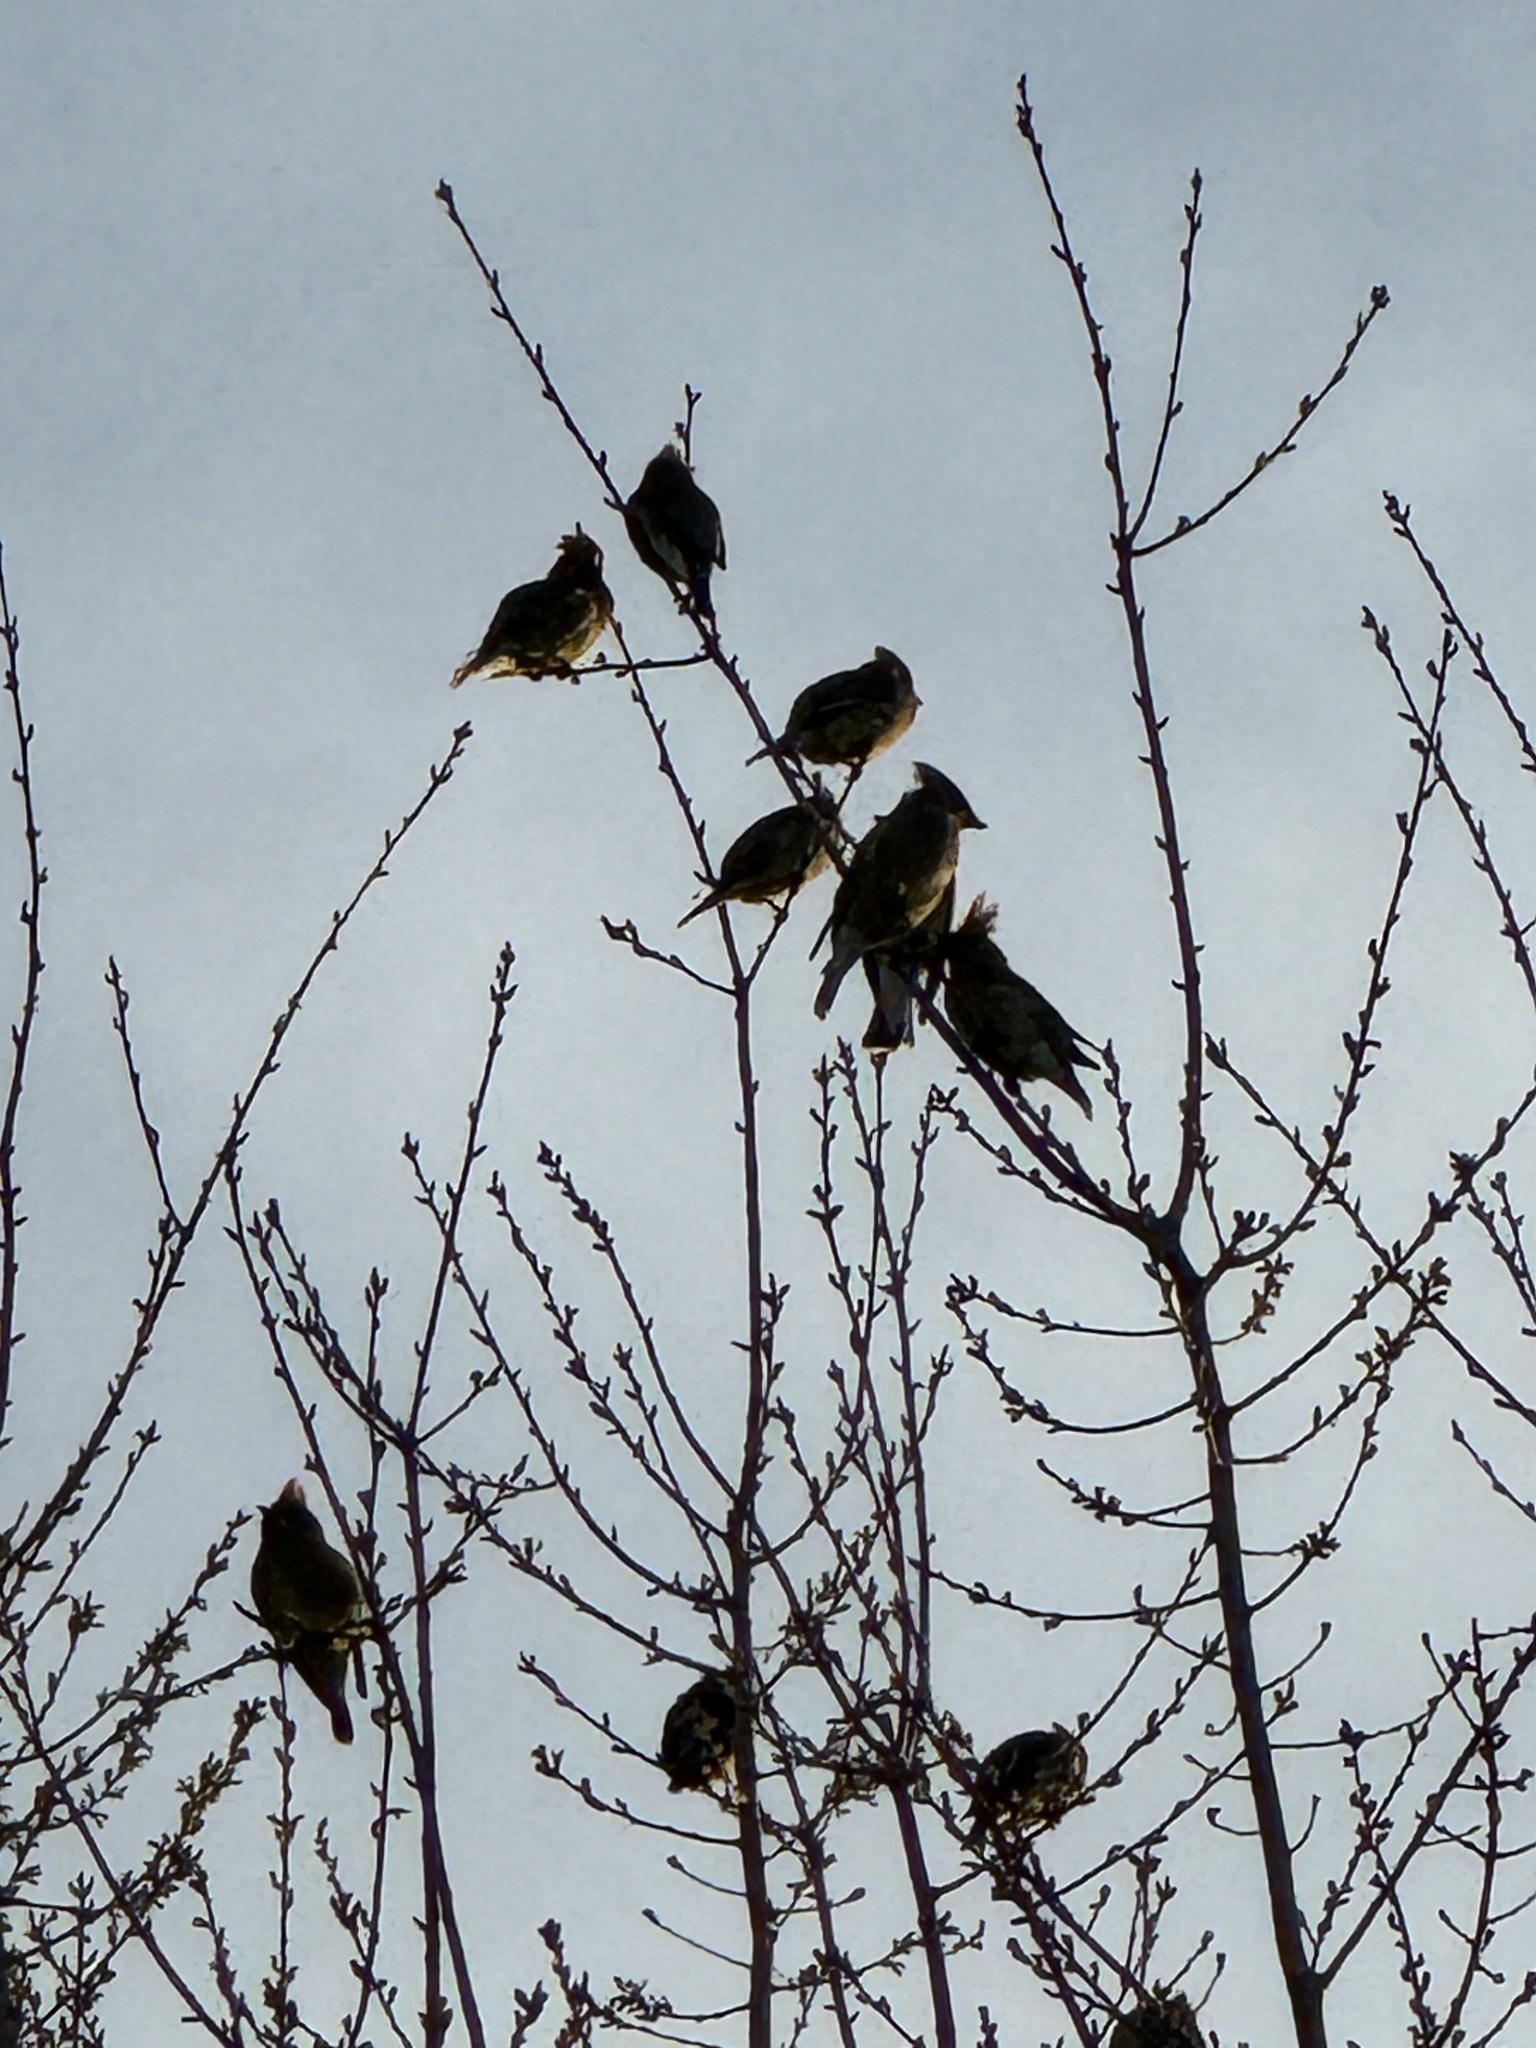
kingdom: Animalia
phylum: Chordata
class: Aves
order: Passeriformes
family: Bombycillidae
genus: Bombycilla
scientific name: Bombycilla cedrorum
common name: Cedar waxwing
